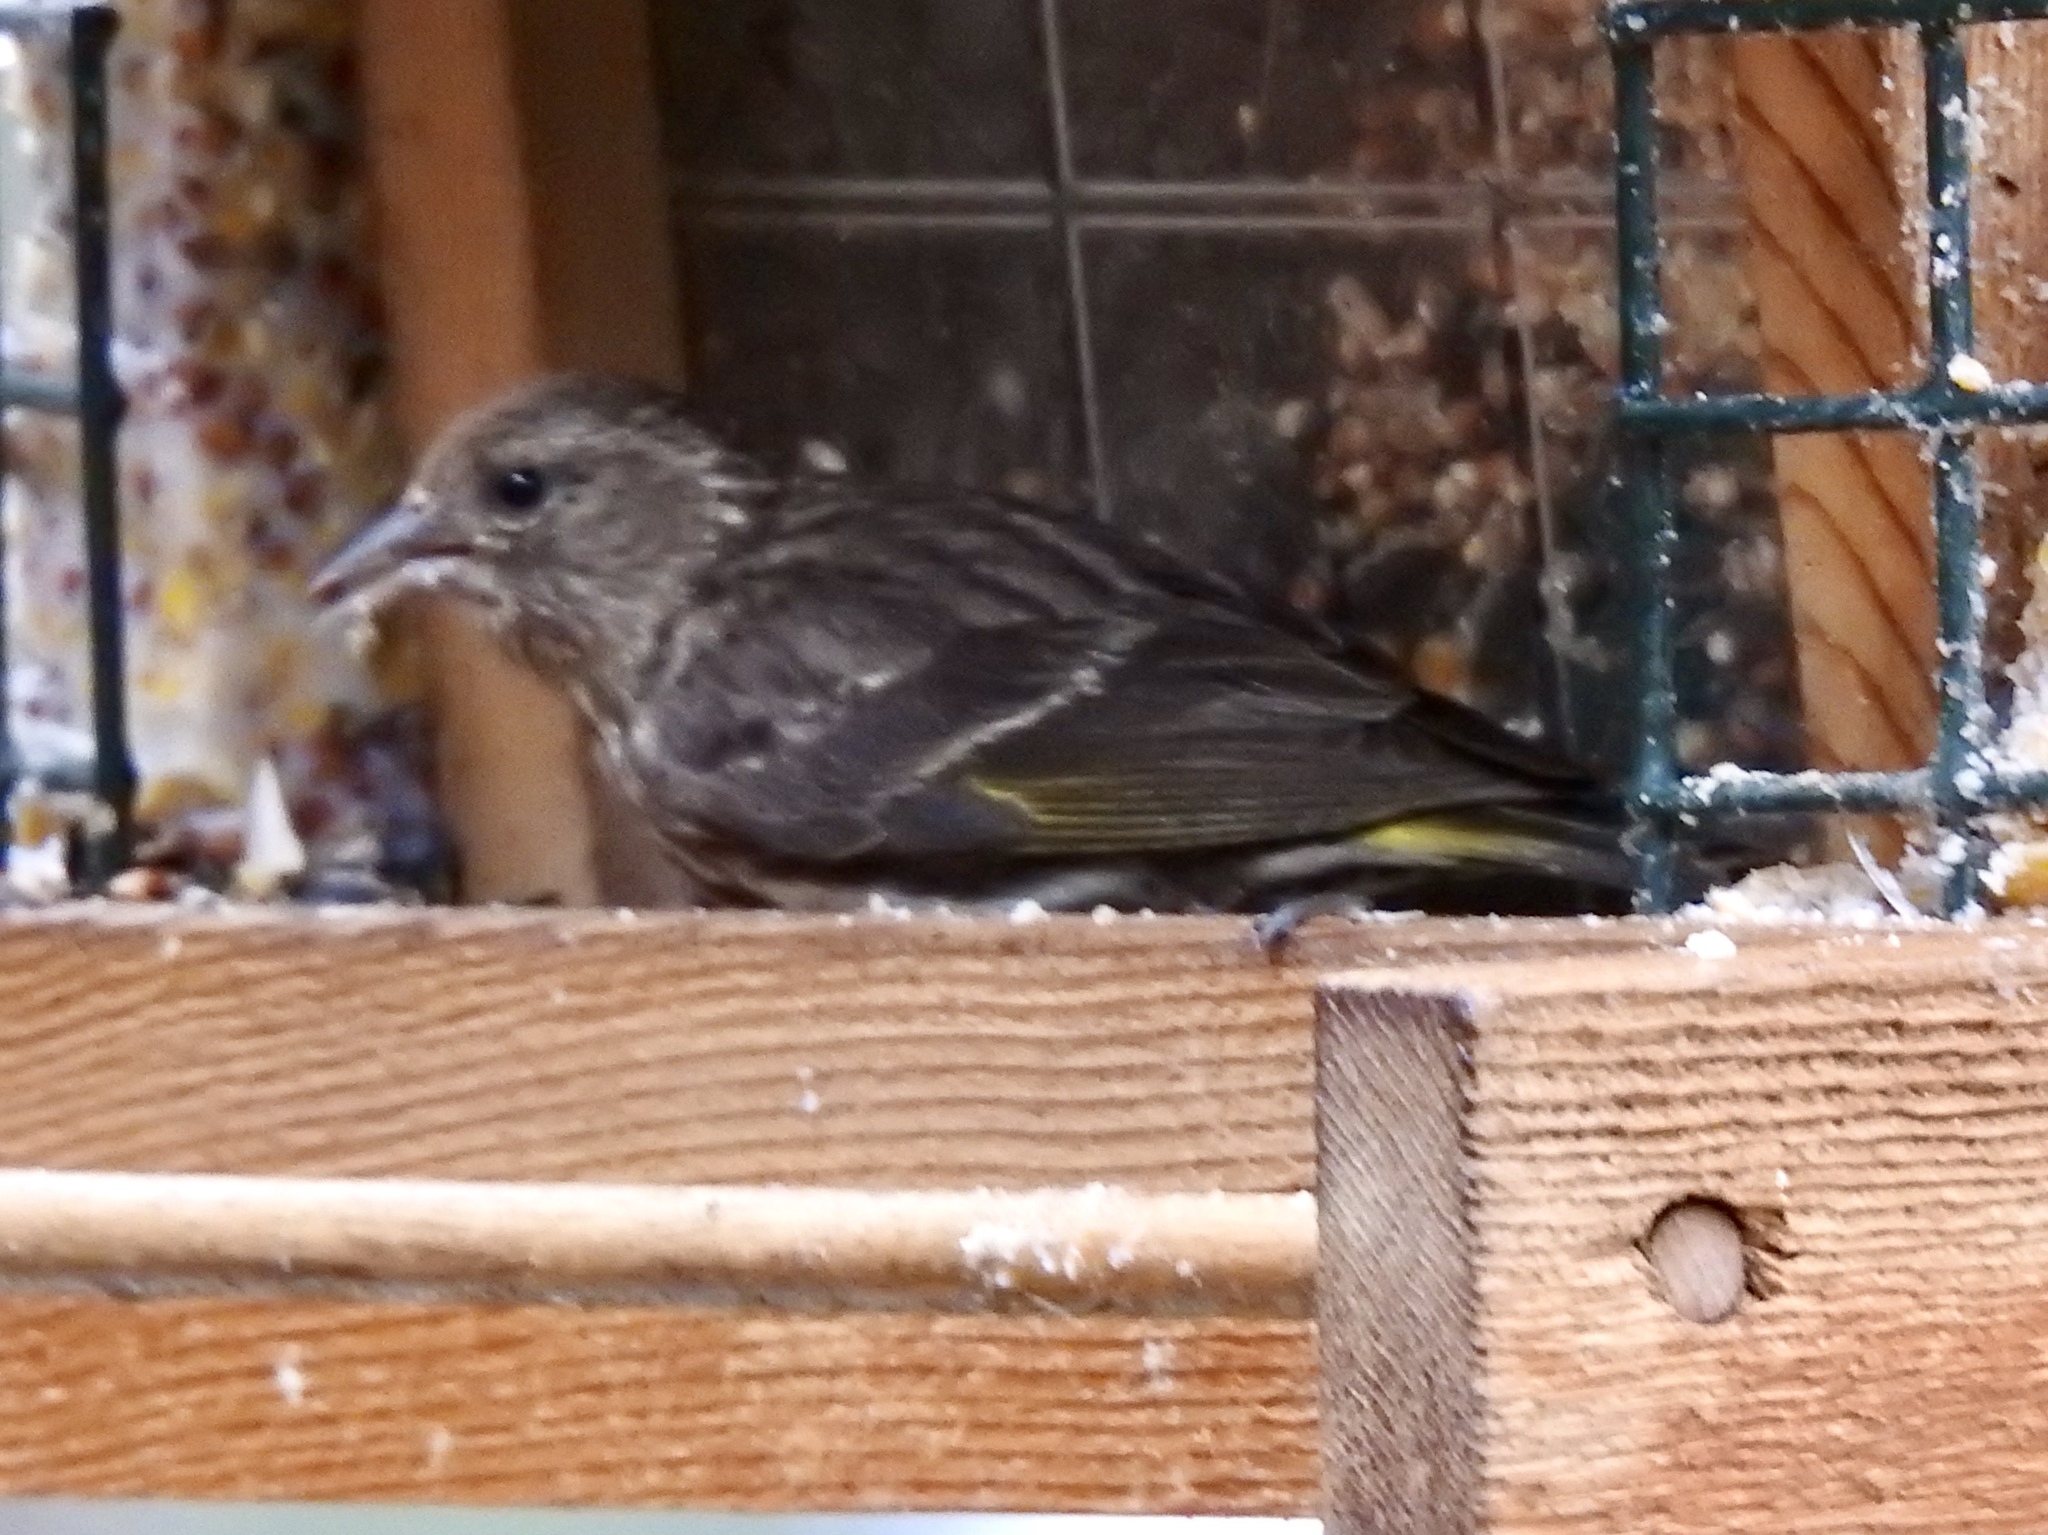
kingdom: Animalia
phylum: Chordata
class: Aves
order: Passeriformes
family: Fringillidae
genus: Spinus
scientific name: Spinus pinus
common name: Pine siskin
